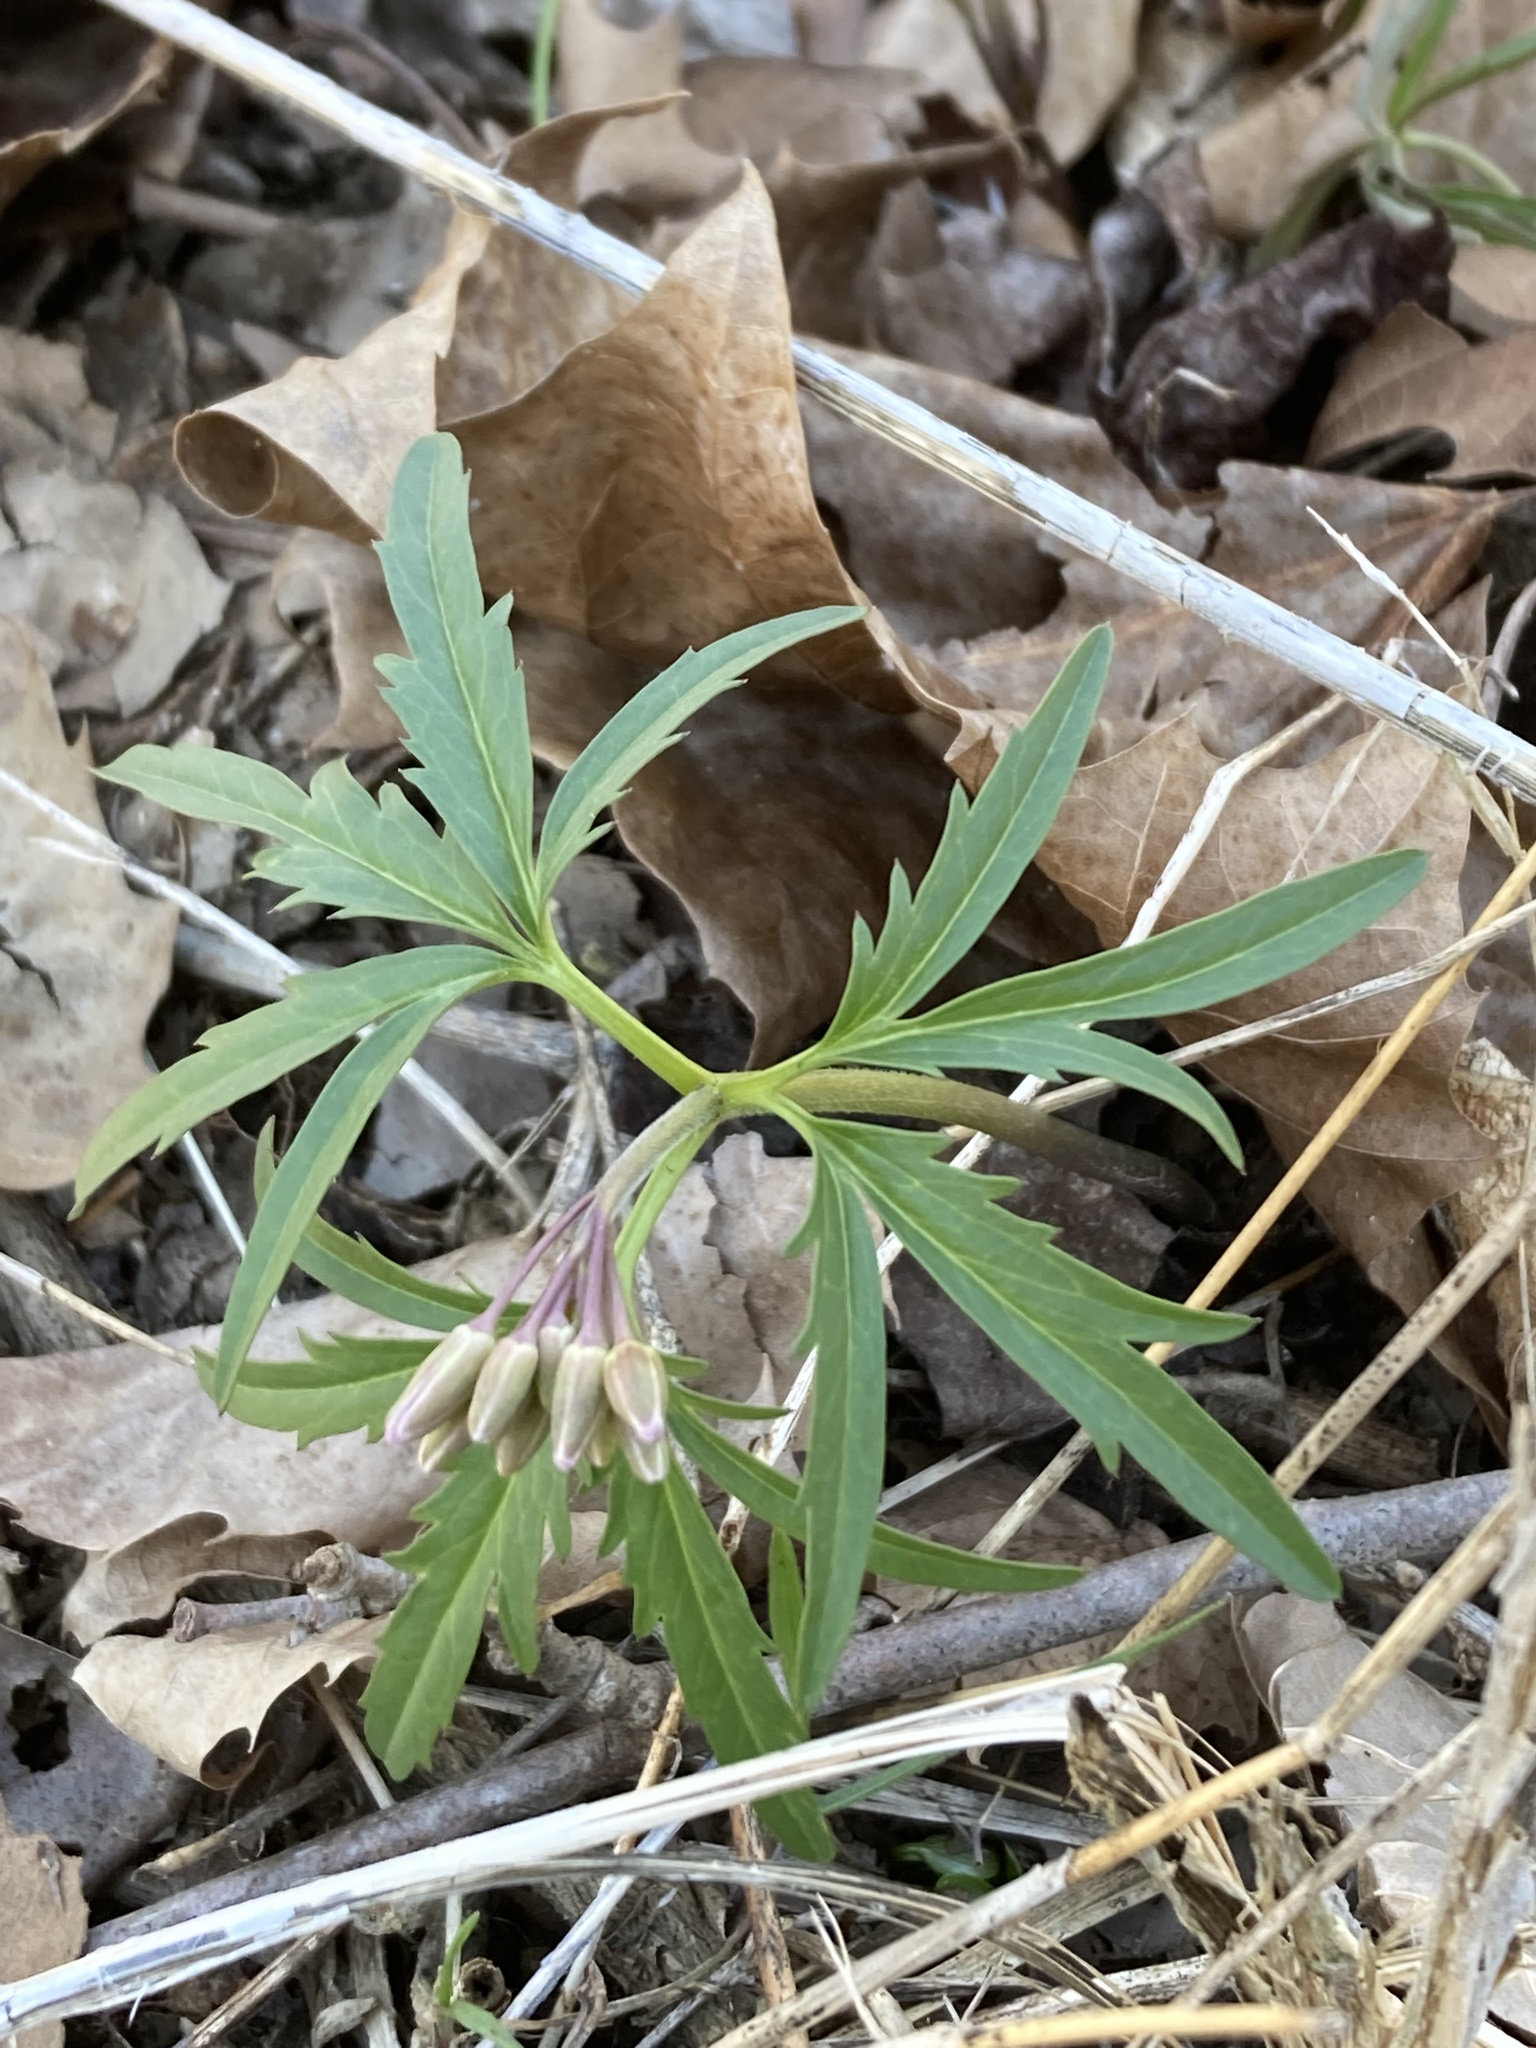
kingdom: Plantae
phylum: Tracheophyta
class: Magnoliopsida
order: Brassicales
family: Brassicaceae
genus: Cardamine
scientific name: Cardamine concatenata
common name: Cut-leaf toothcup
